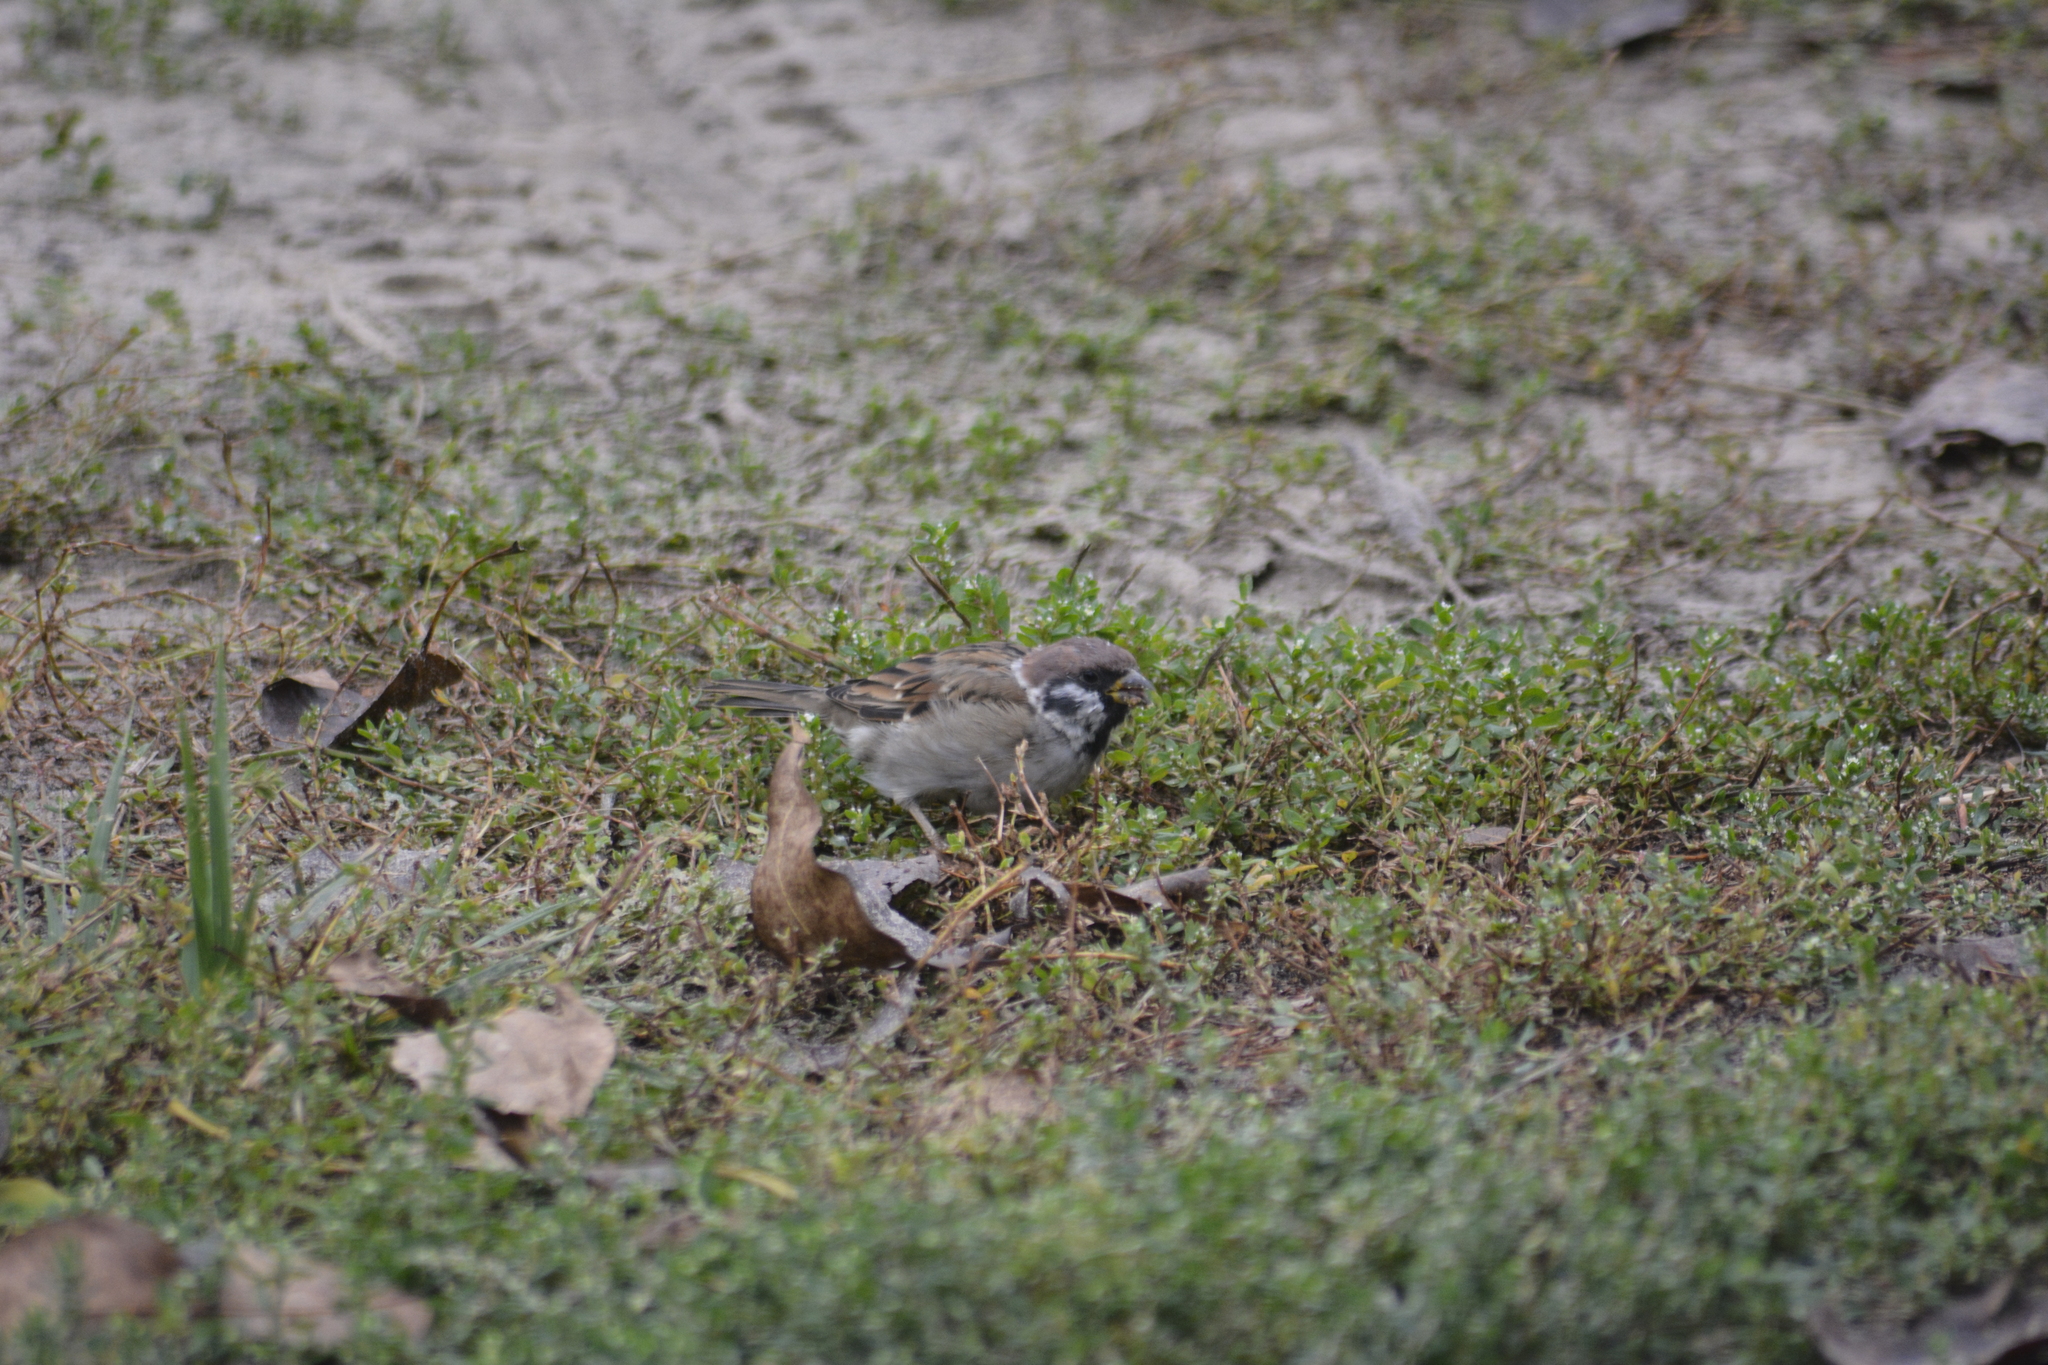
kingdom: Animalia
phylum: Chordata
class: Aves
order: Passeriformes
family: Passeridae
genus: Passer
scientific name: Passer montanus
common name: Eurasian tree sparrow
